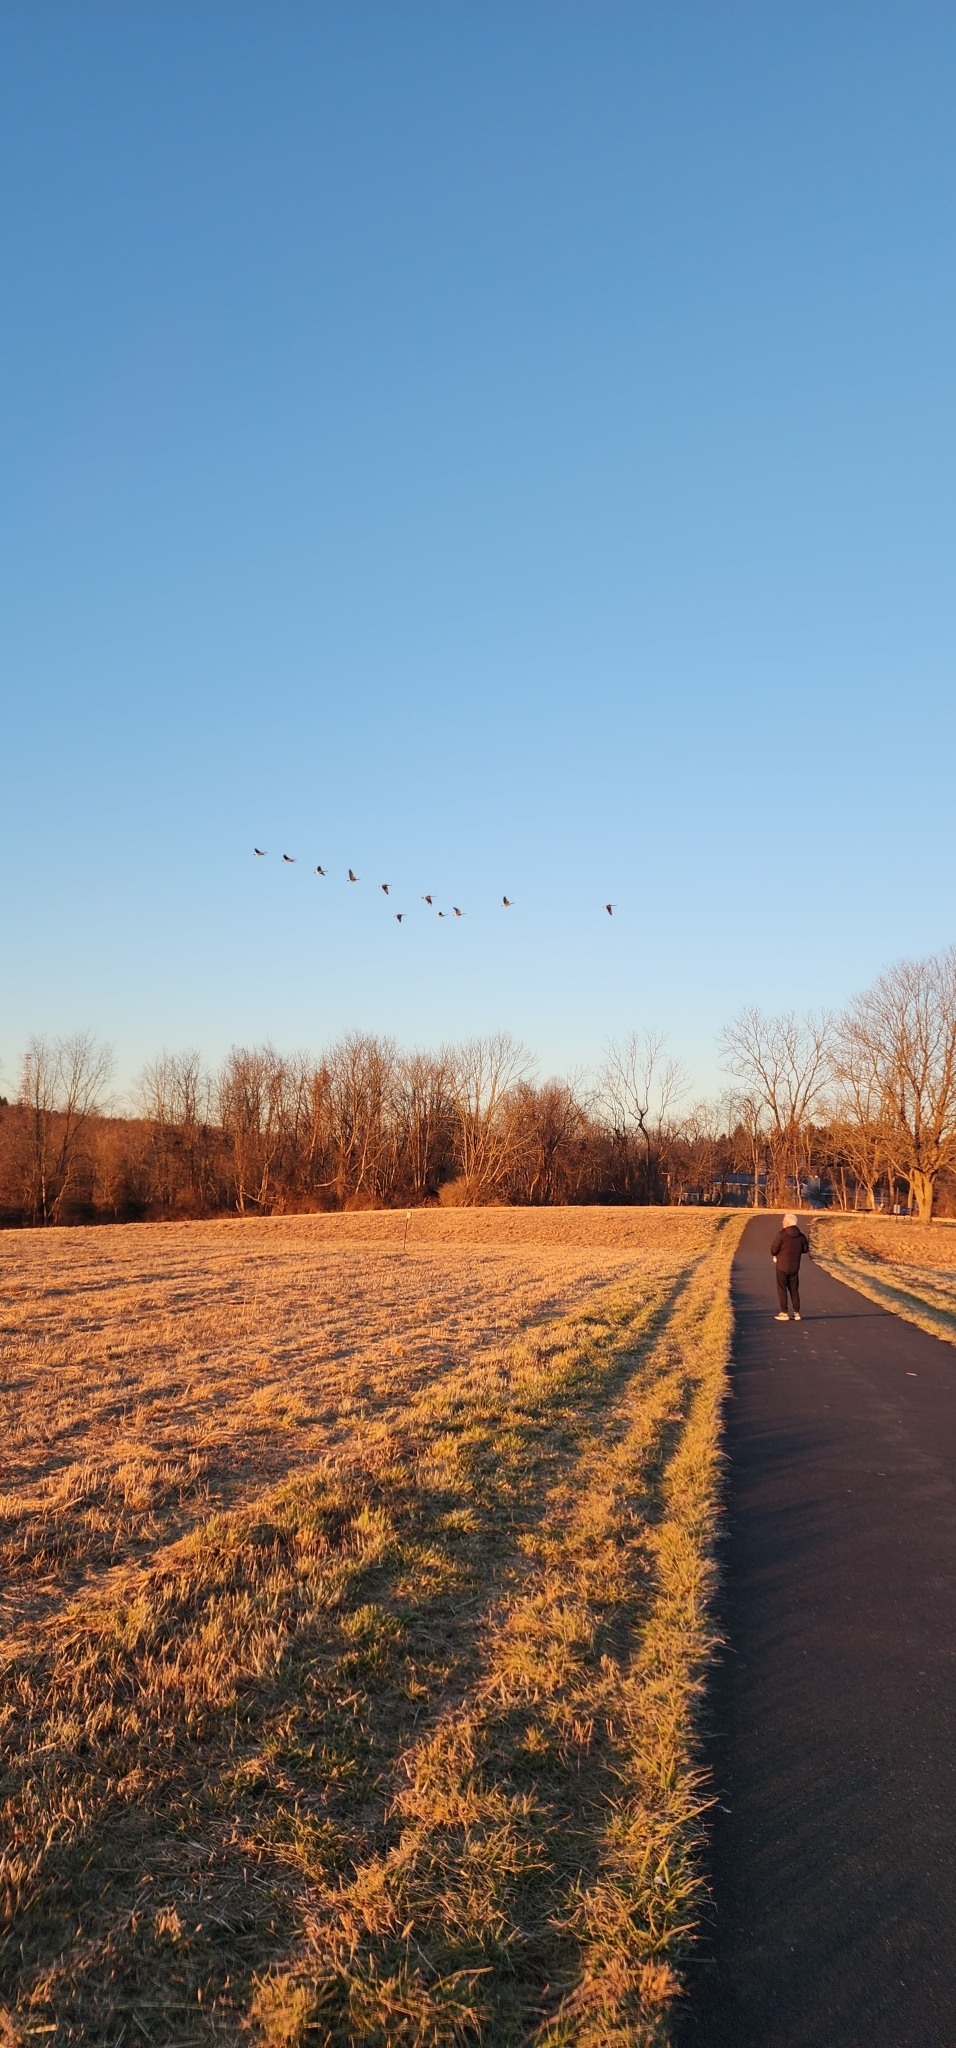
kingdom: Animalia
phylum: Chordata
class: Aves
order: Anseriformes
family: Anatidae
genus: Branta
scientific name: Branta canadensis
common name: Canada goose
